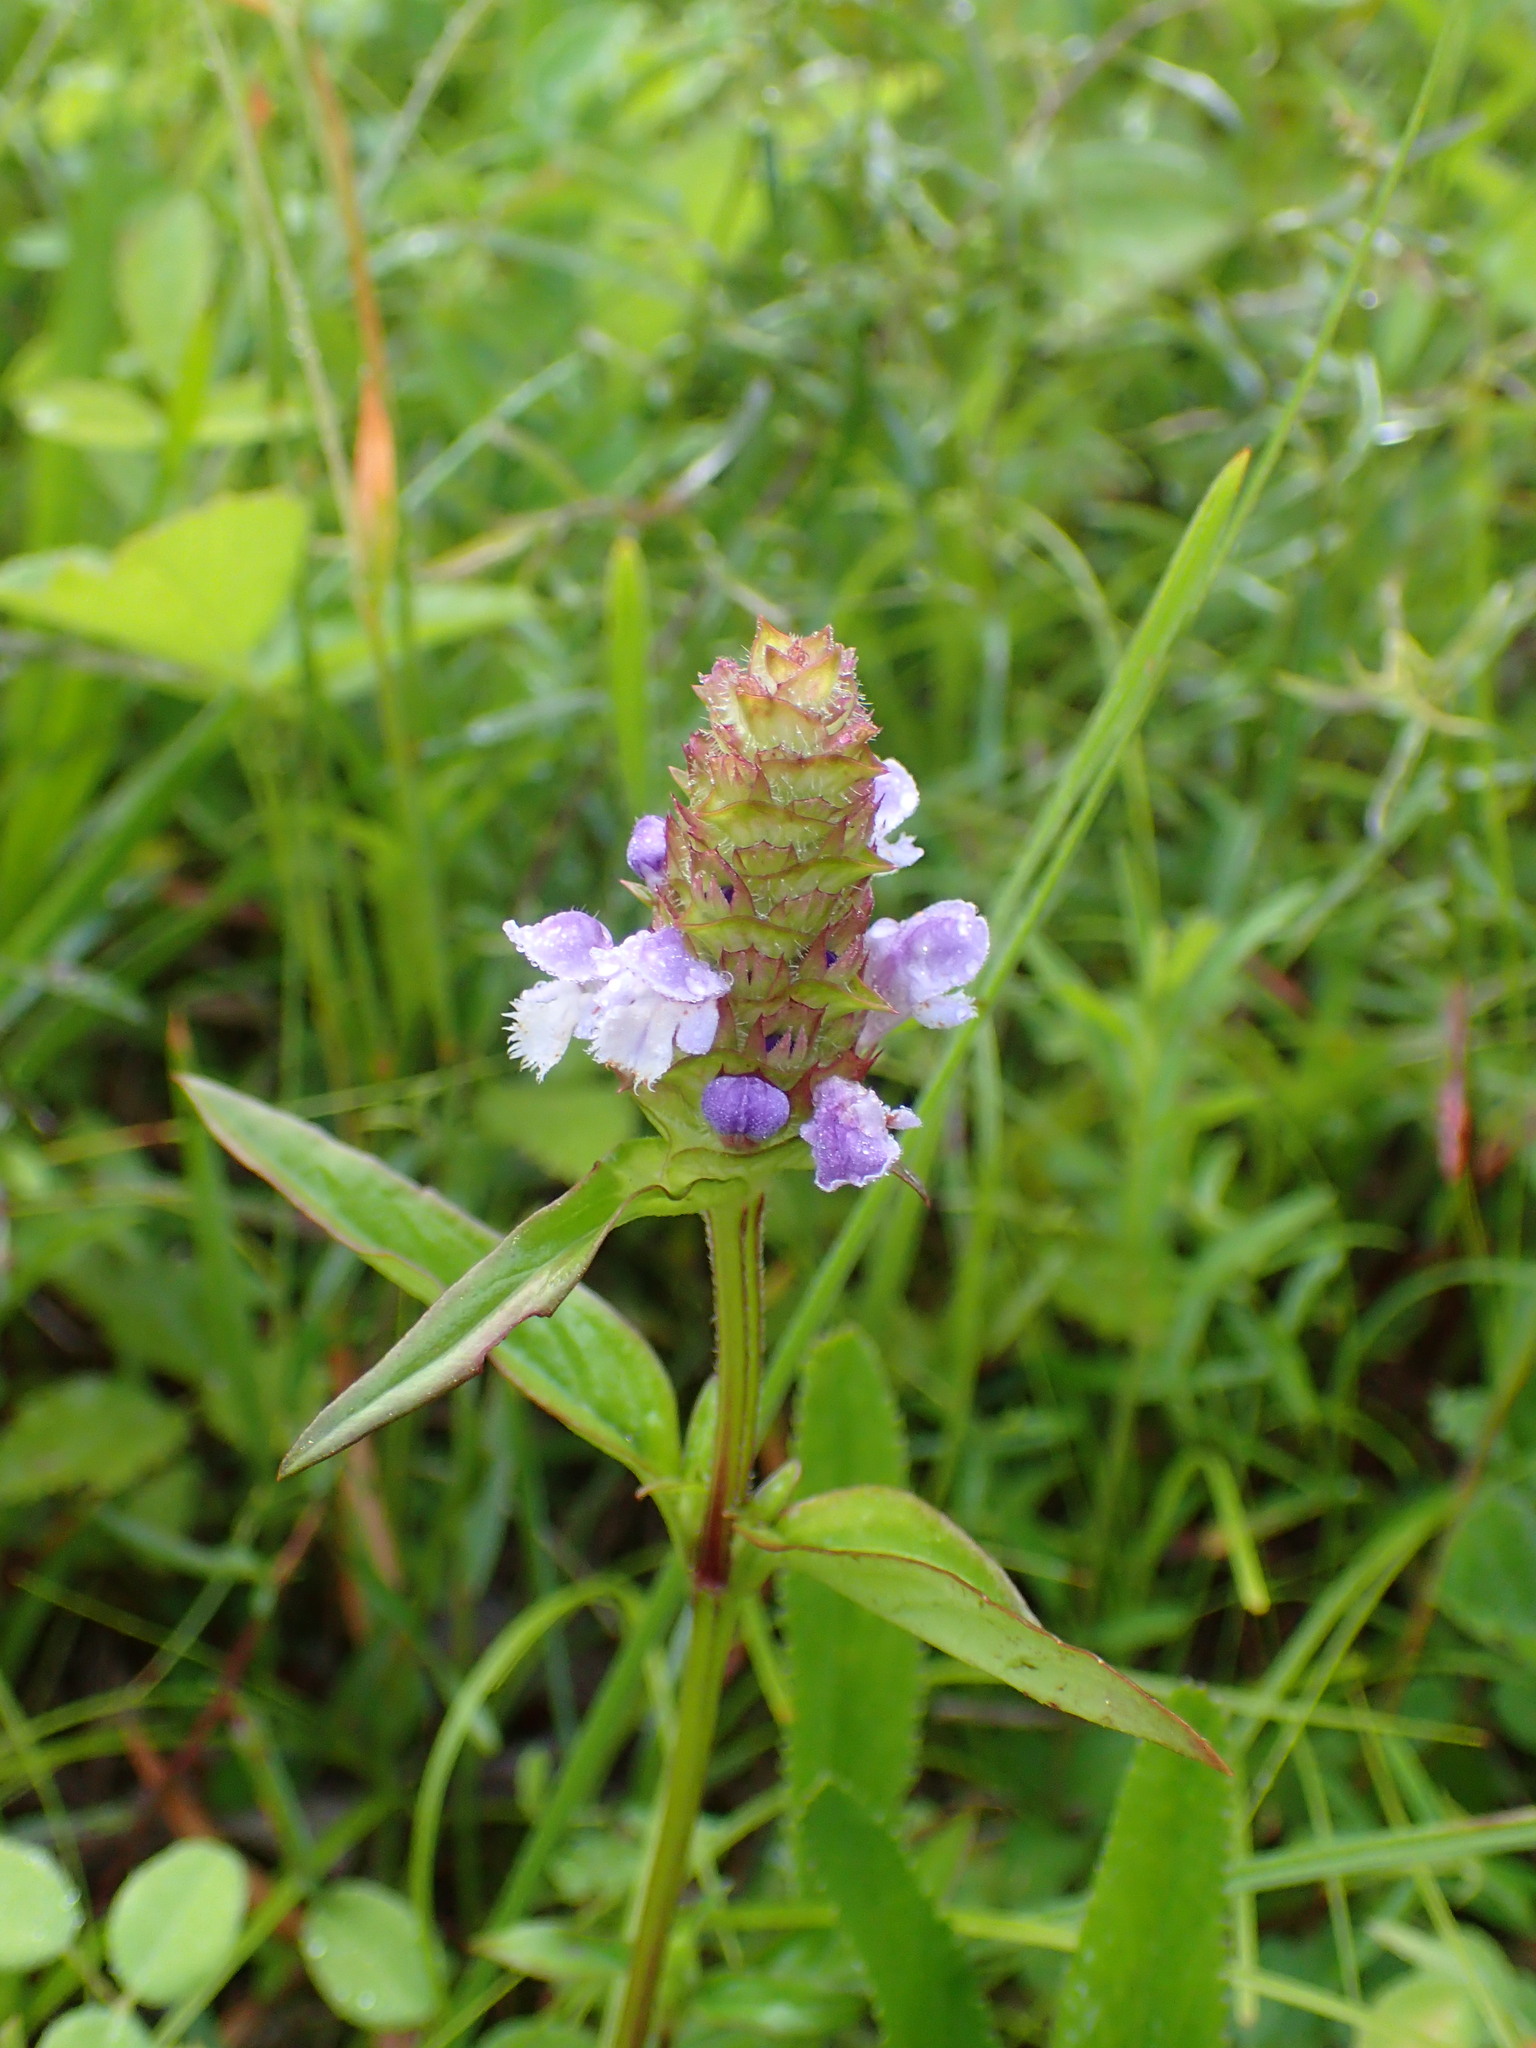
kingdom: Plantae
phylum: Tracheophyta
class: Magnoliopsida
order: Lamiales
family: Lamiaceae
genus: Prunella
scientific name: Prunella vulgaris
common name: Heal-all
